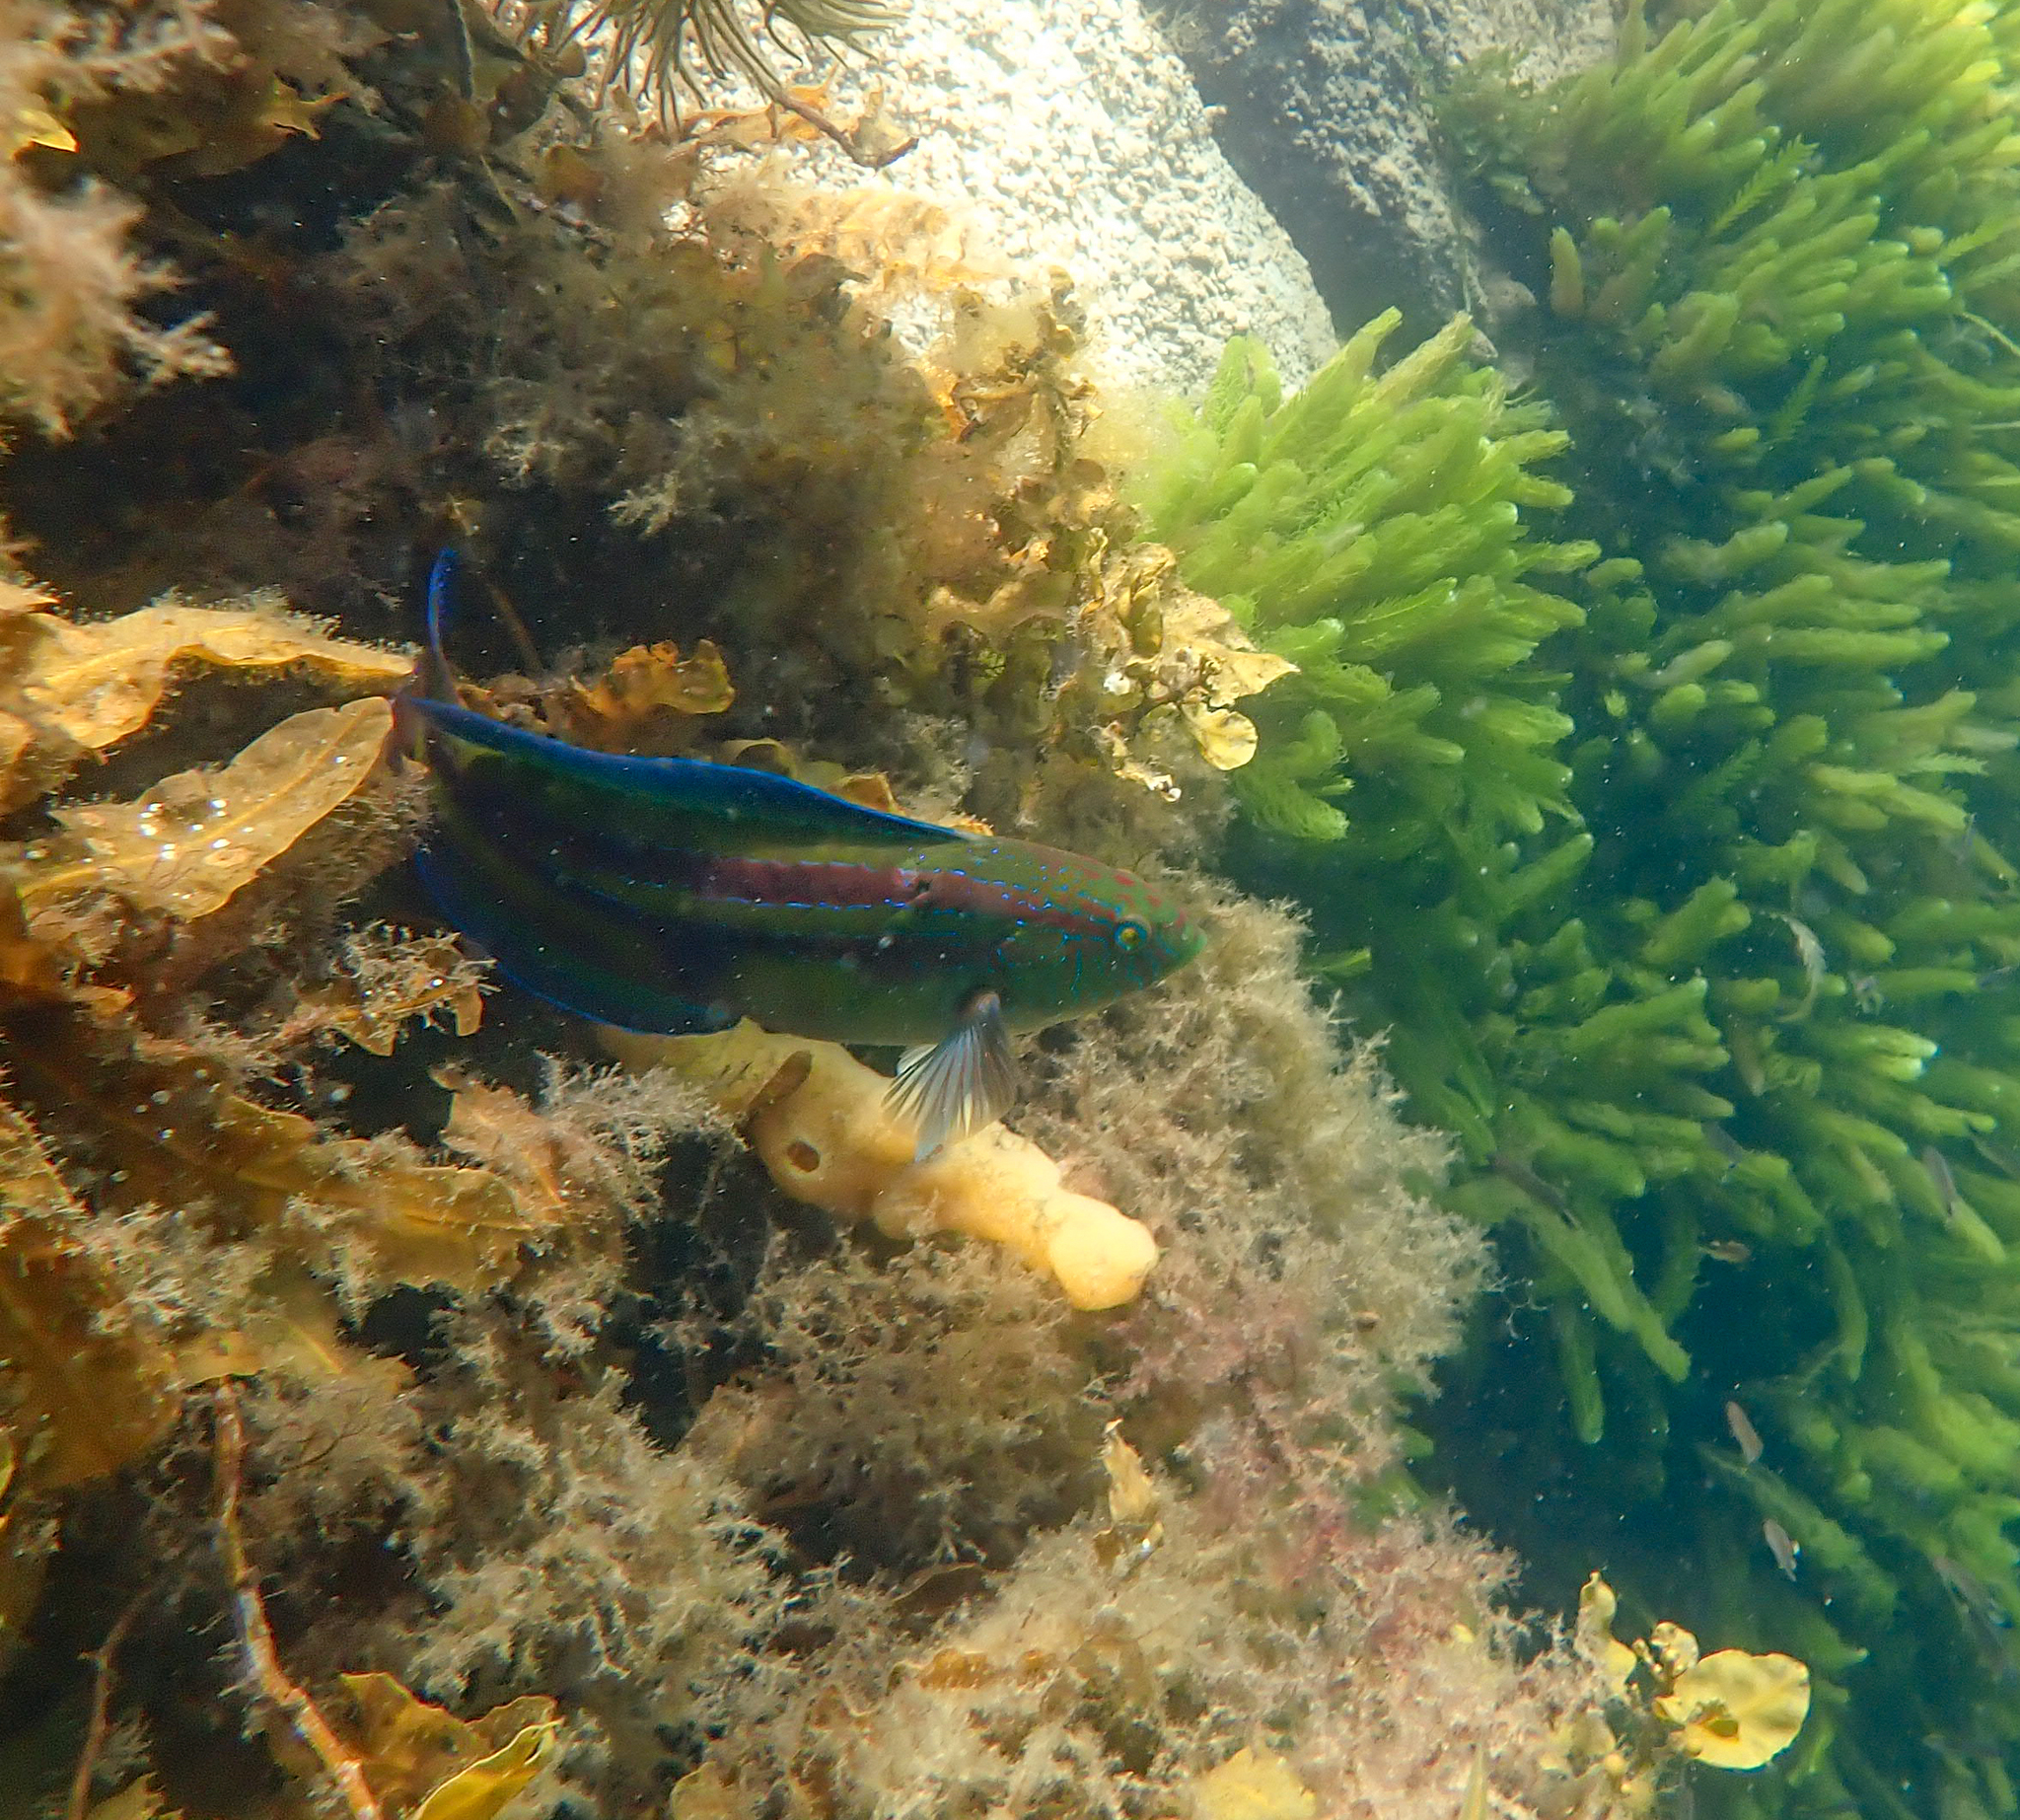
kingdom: Animalia
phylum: Chordata
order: Perciformes
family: Labridae
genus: Pictilabrus
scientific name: Pictilabrus laticlavius
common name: Patrician wrasse
